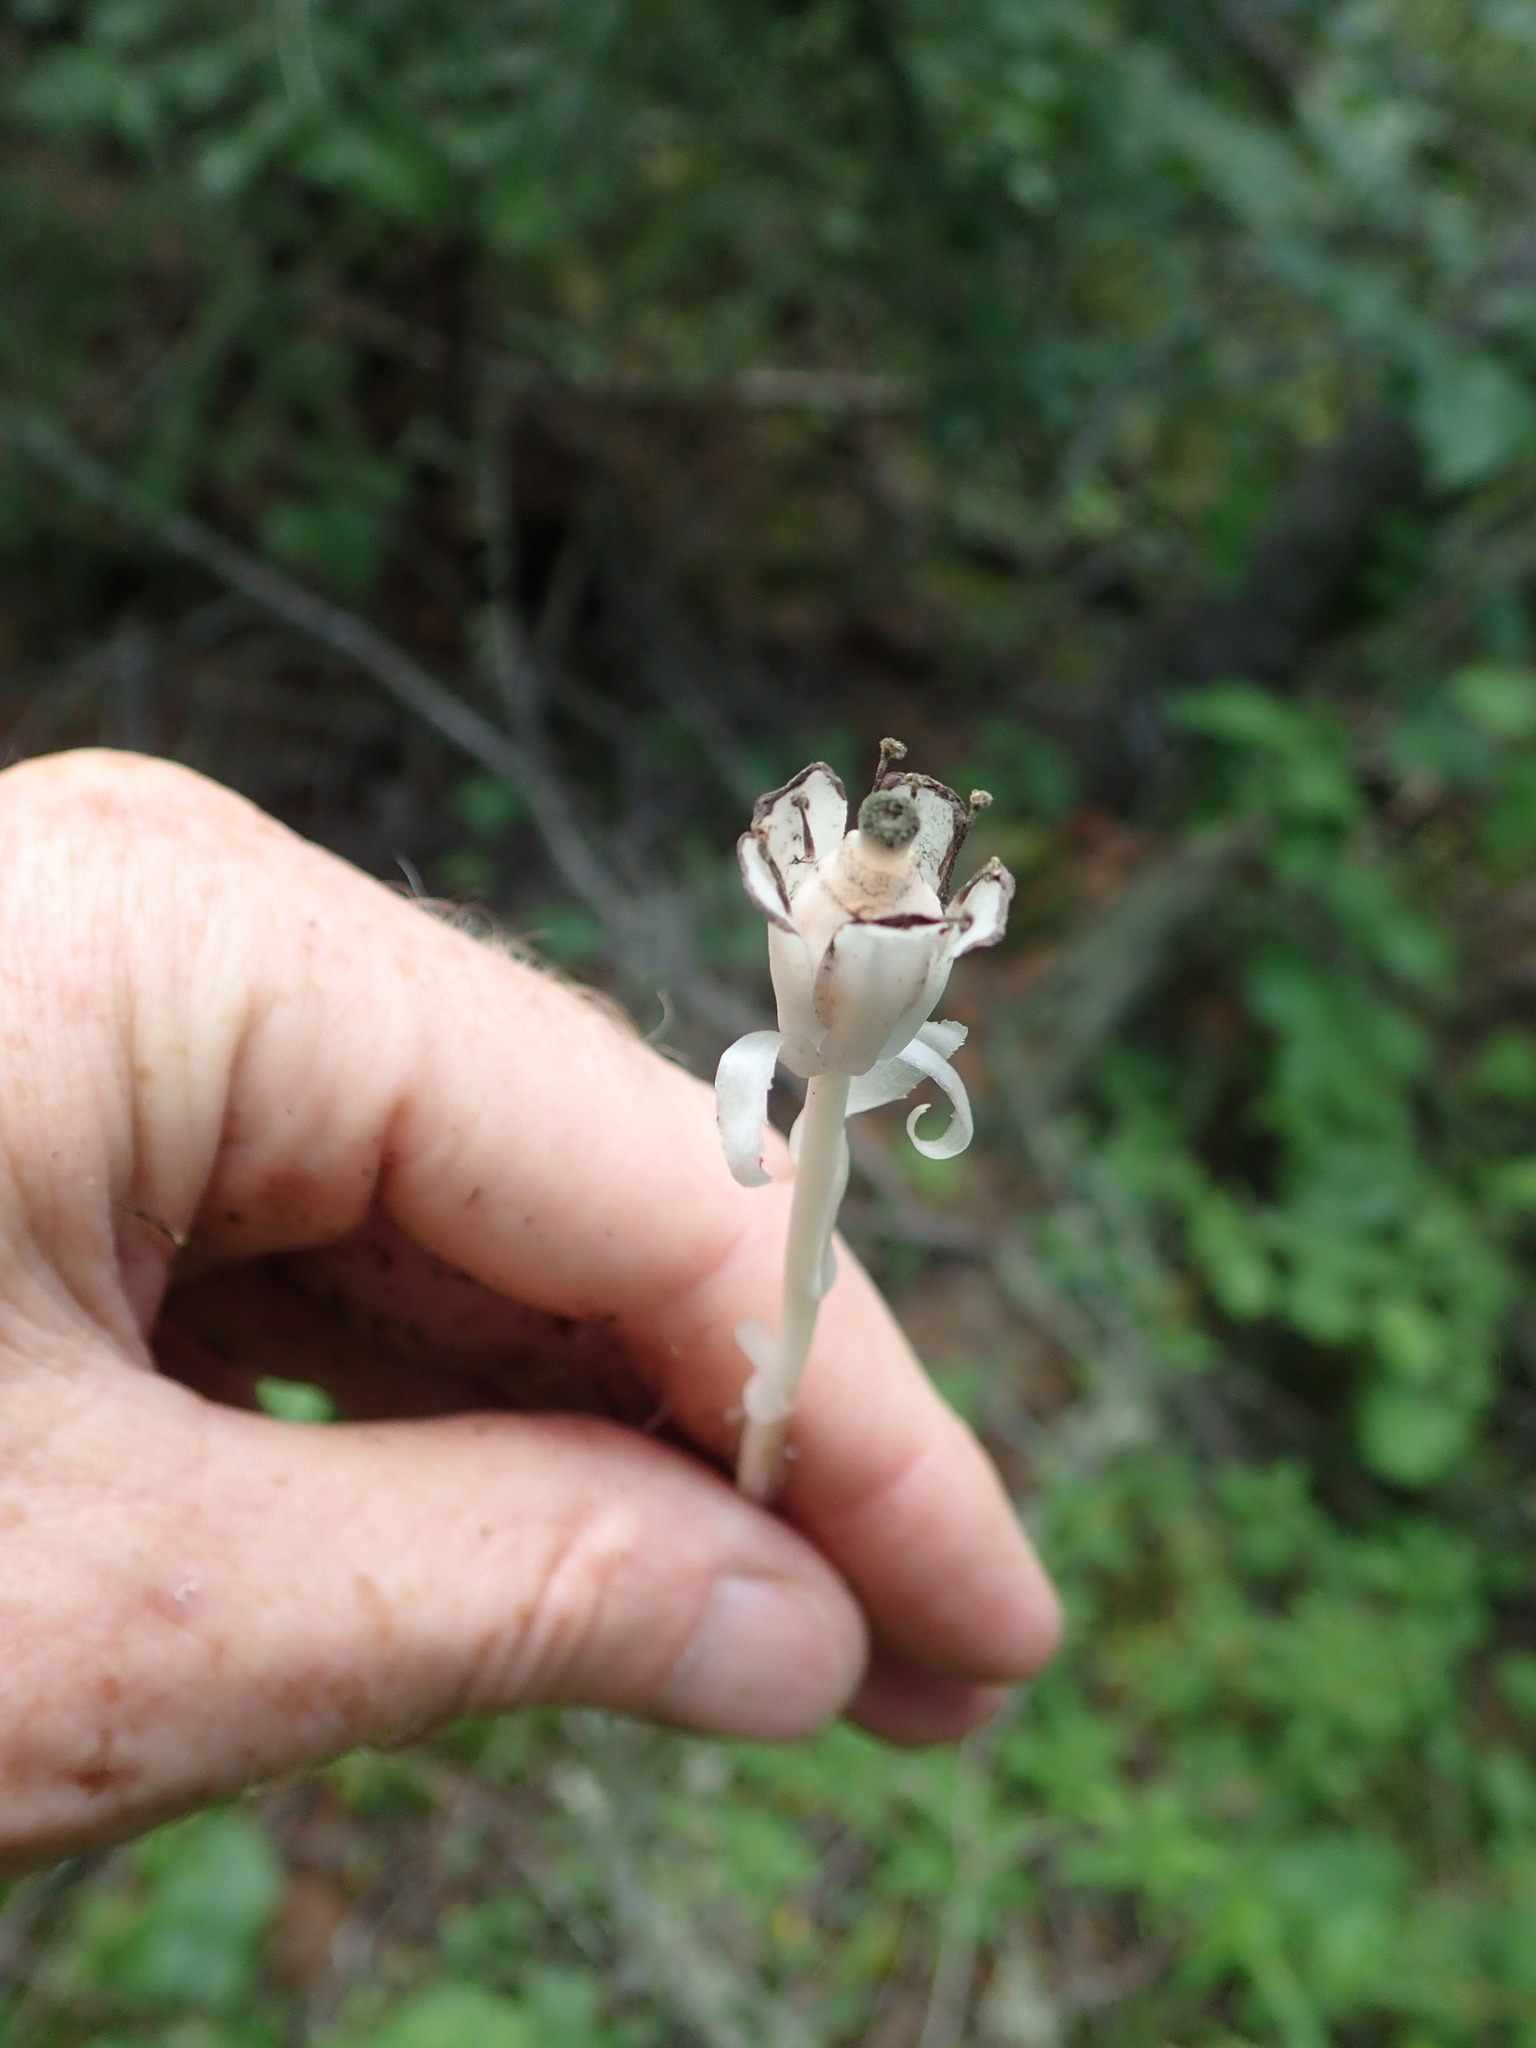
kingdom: Plantae
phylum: Tracheophyta
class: Magnoliopsida
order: Ericales
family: Ericaceae
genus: Monotropa
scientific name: Monotropa uniflora
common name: Convulsion root
